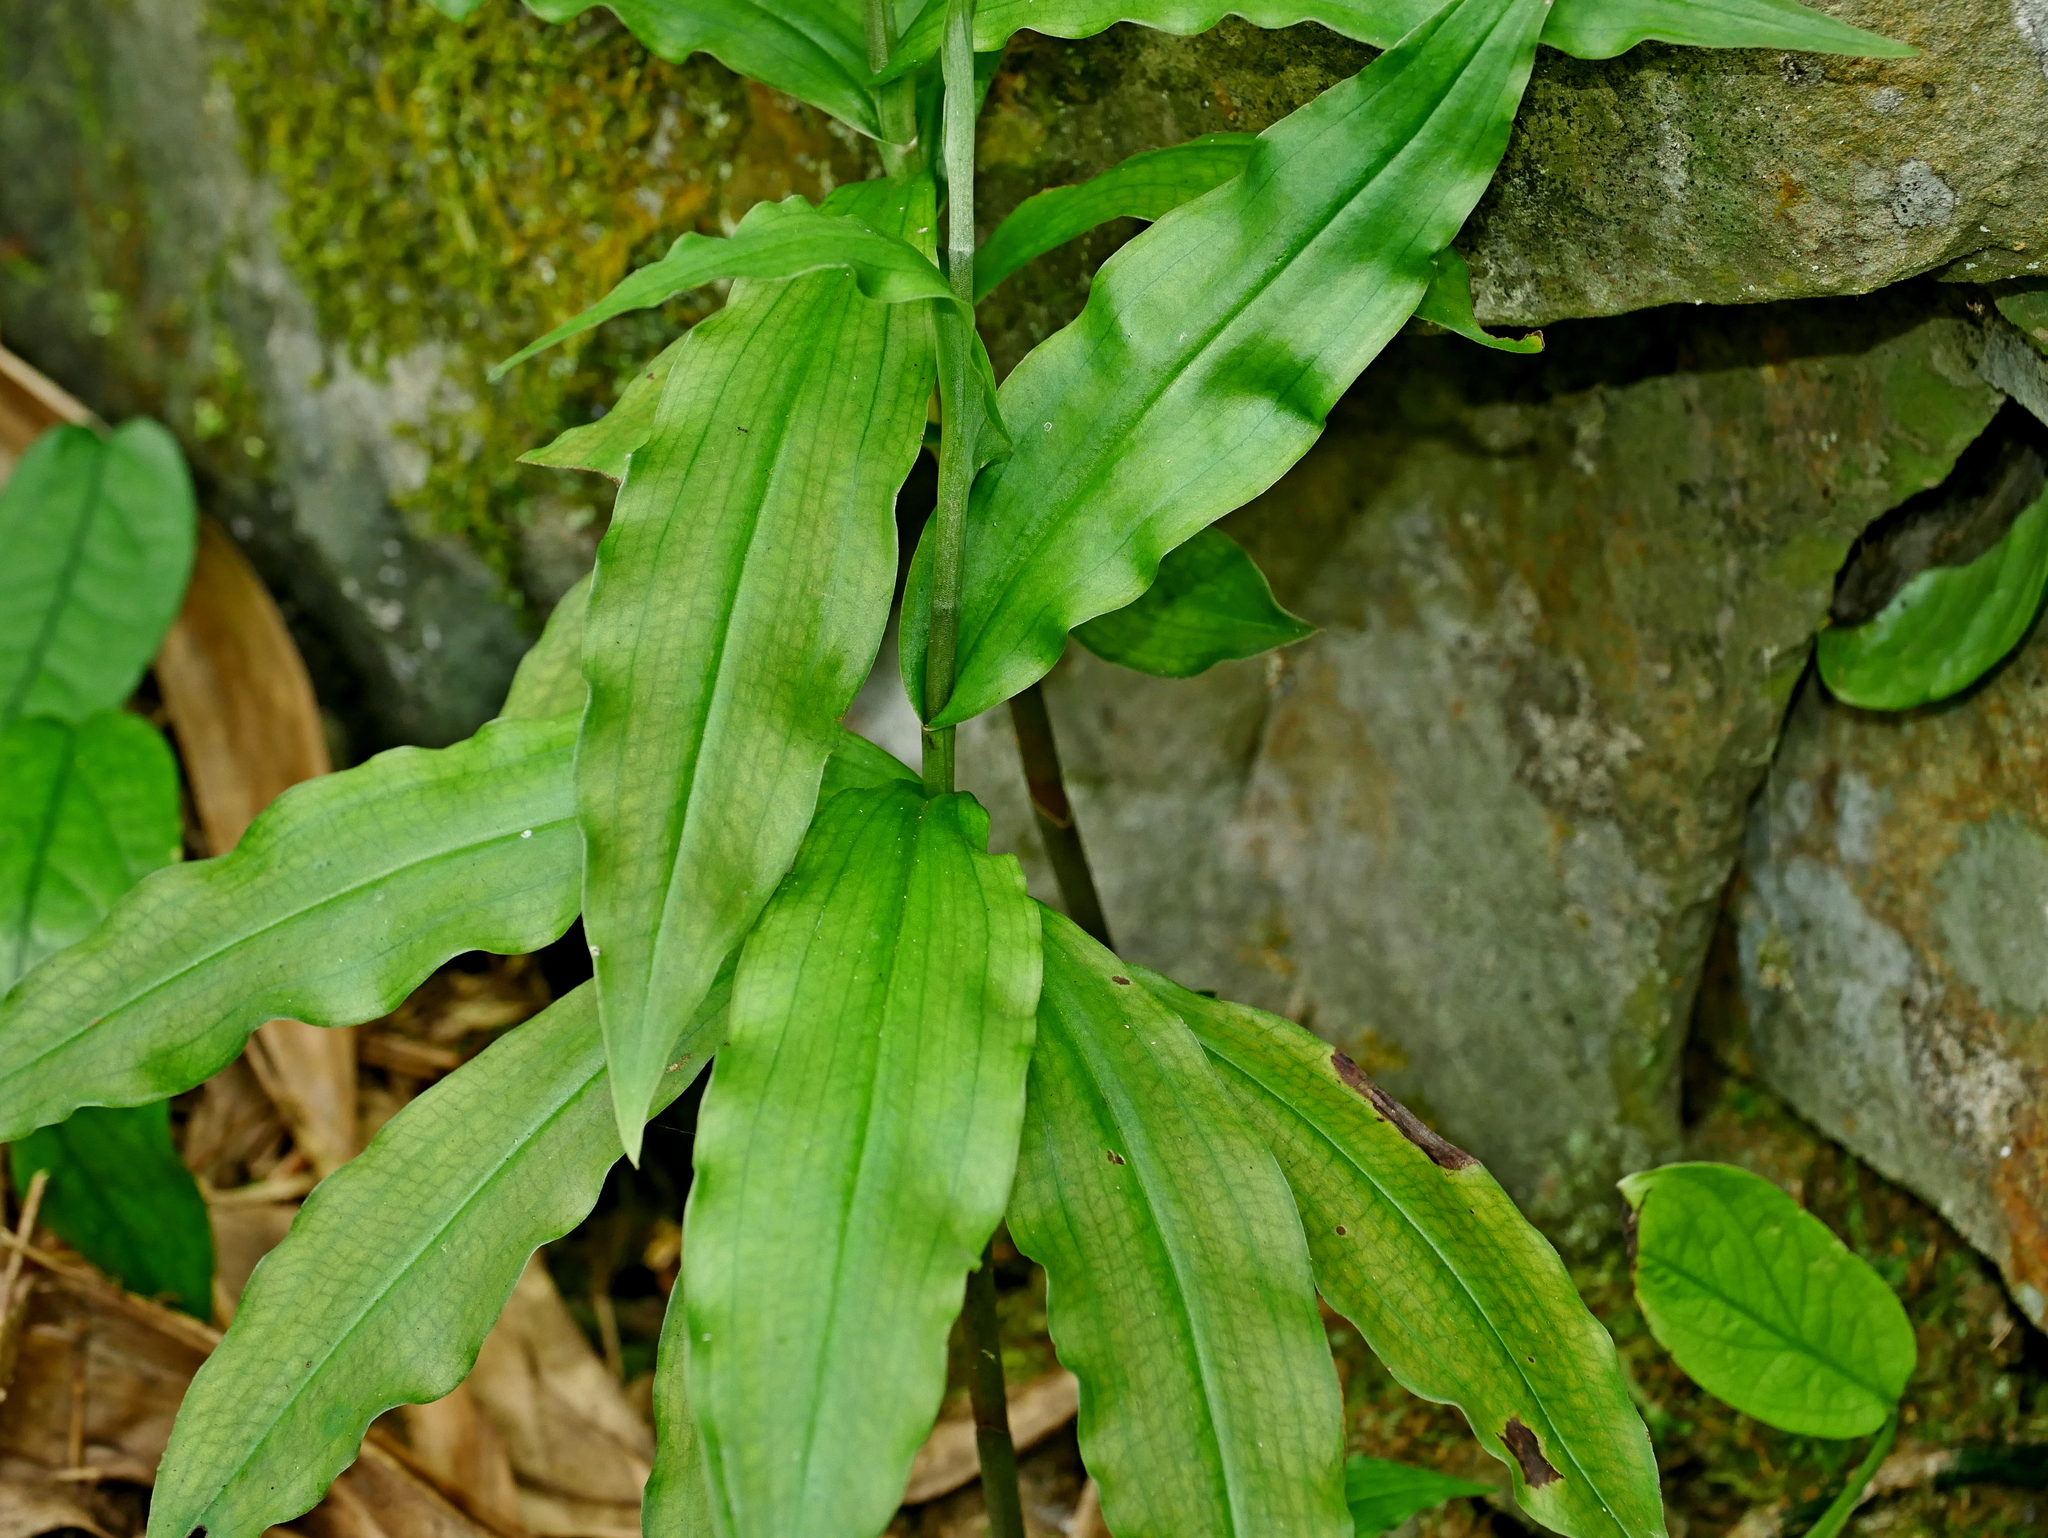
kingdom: Plantae
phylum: Tracheophyta
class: Liliopsida
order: Asparagales
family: Orchidaceae
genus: Habenaria
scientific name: Habenaria stenopetala
